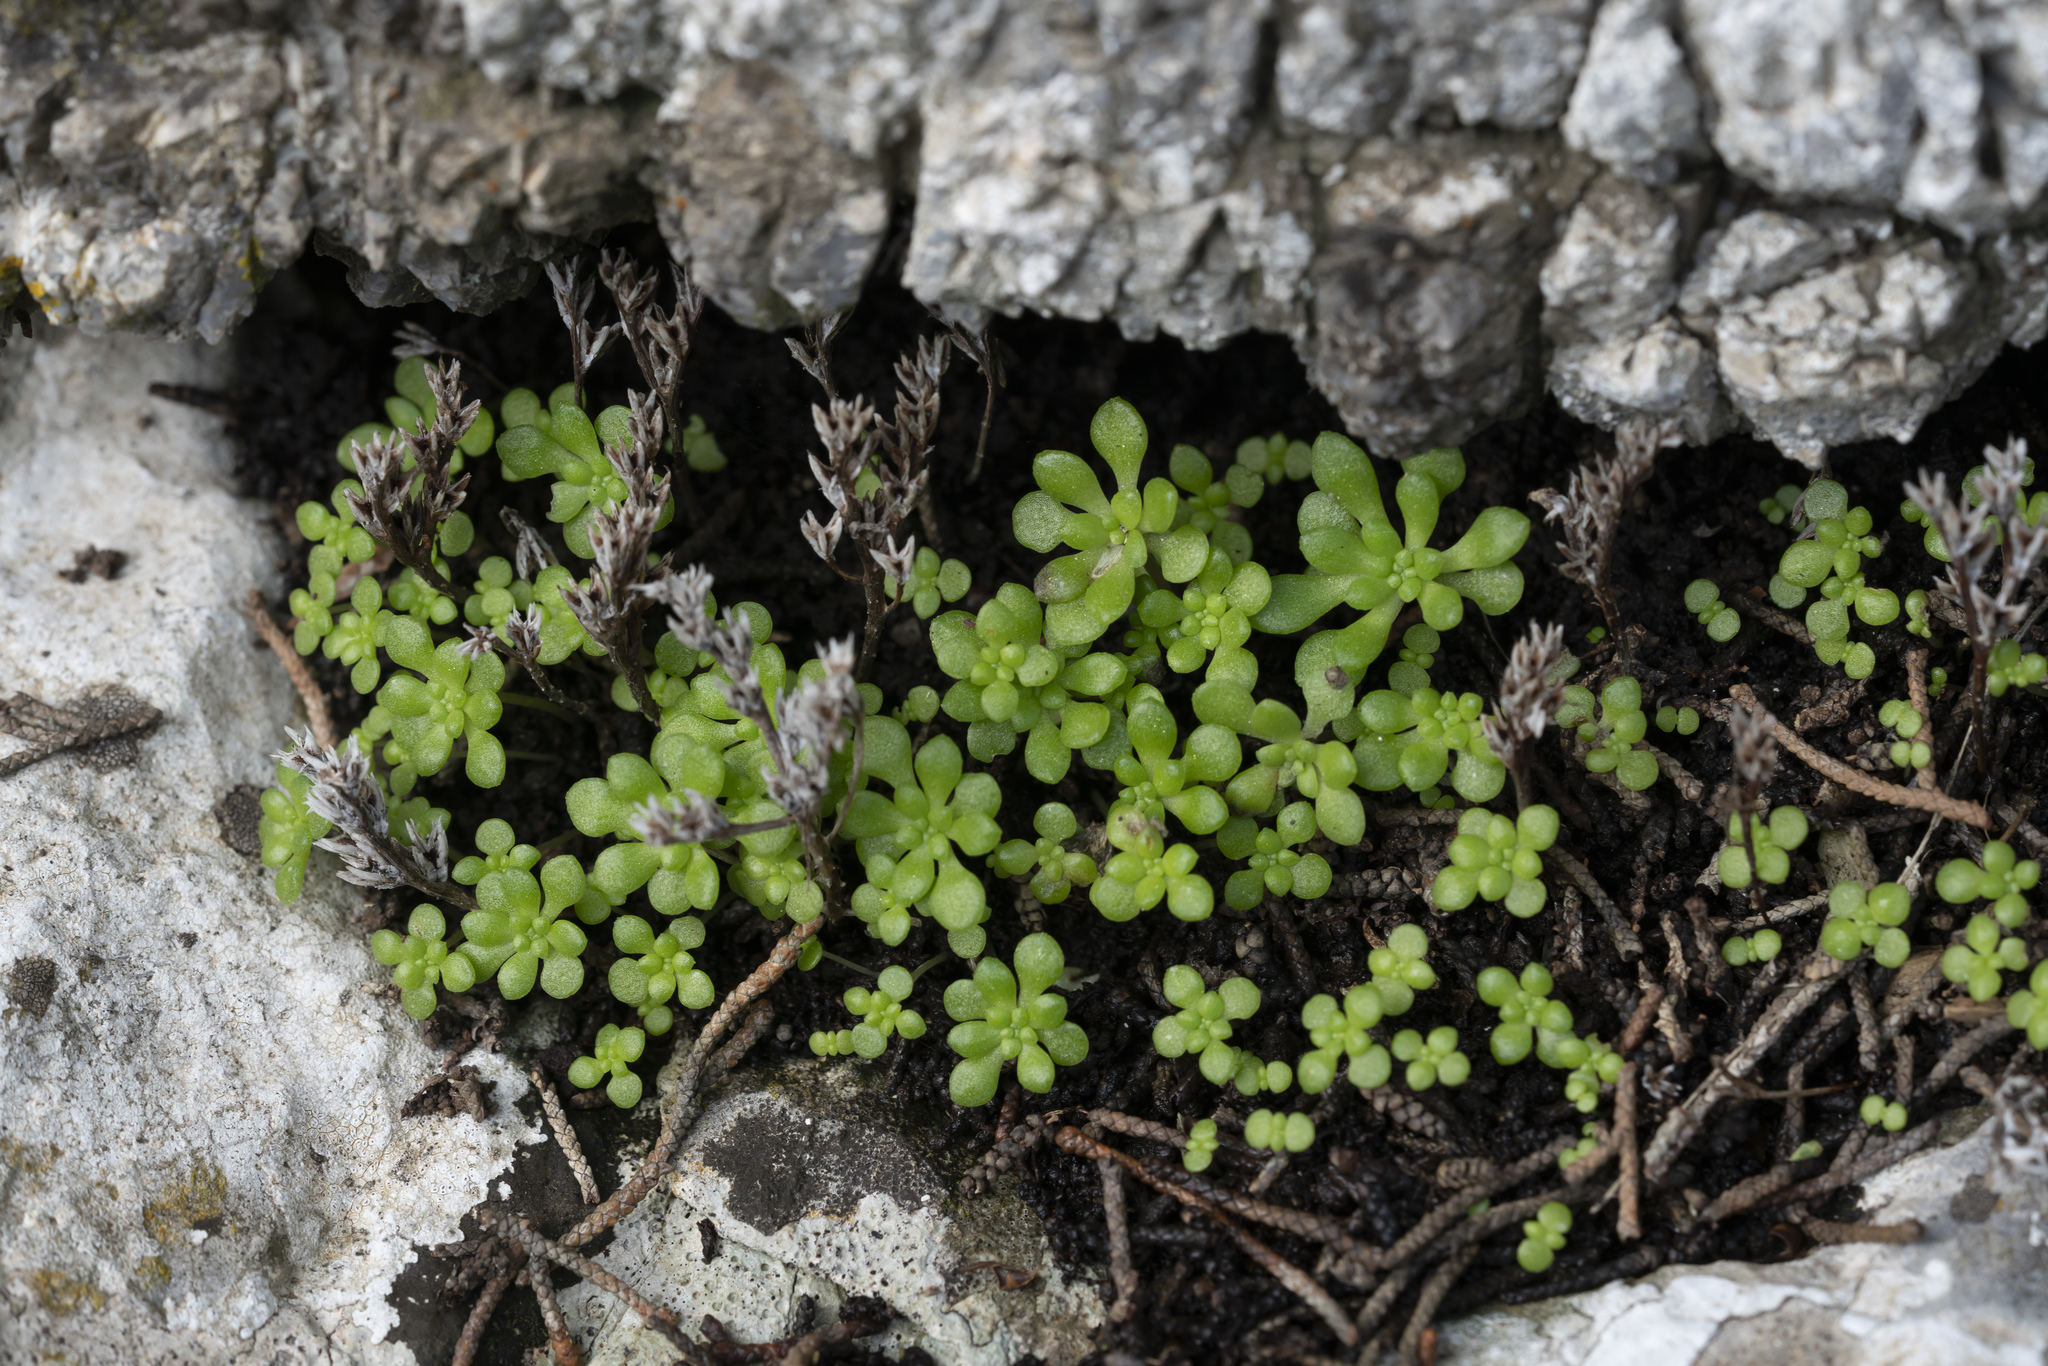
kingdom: Plantae
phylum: Tracheophyta
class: Magnoliopsida
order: Saxifragales
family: Crassulaceae
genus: Sedum
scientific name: Sedum litoreum
